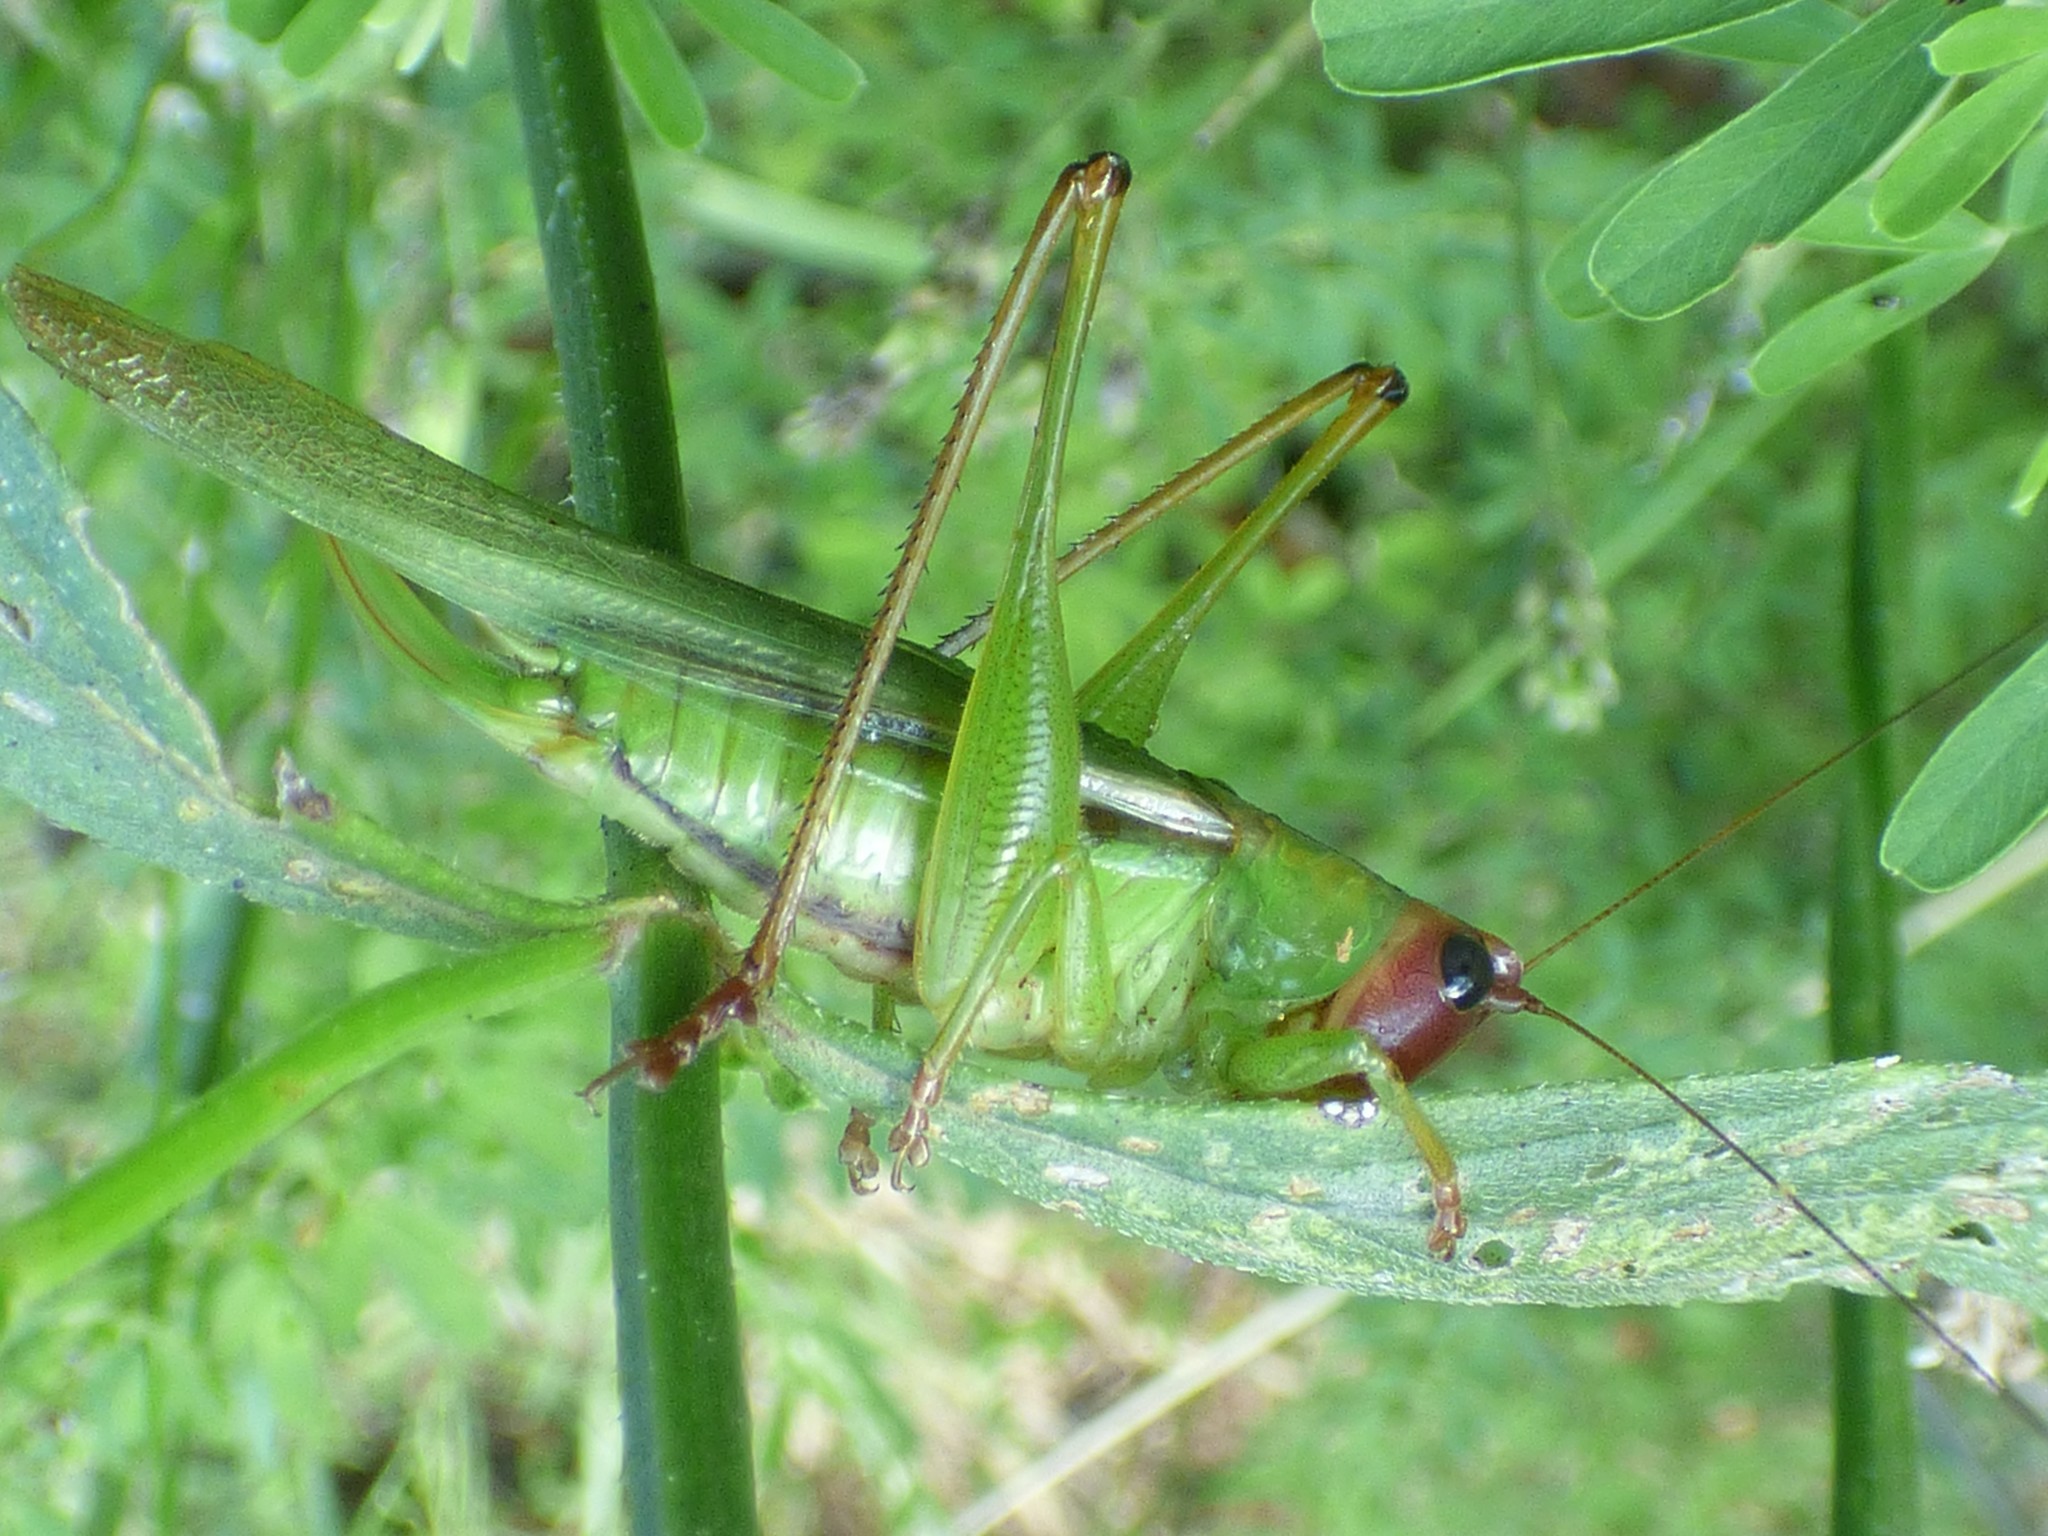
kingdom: Animalia
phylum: Arthropoda
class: Insecta
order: Orthoptera
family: Tettigoniidae
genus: Orchelimum
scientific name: Orchelimum erythrocephalum
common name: Red-headed meadow katydid
